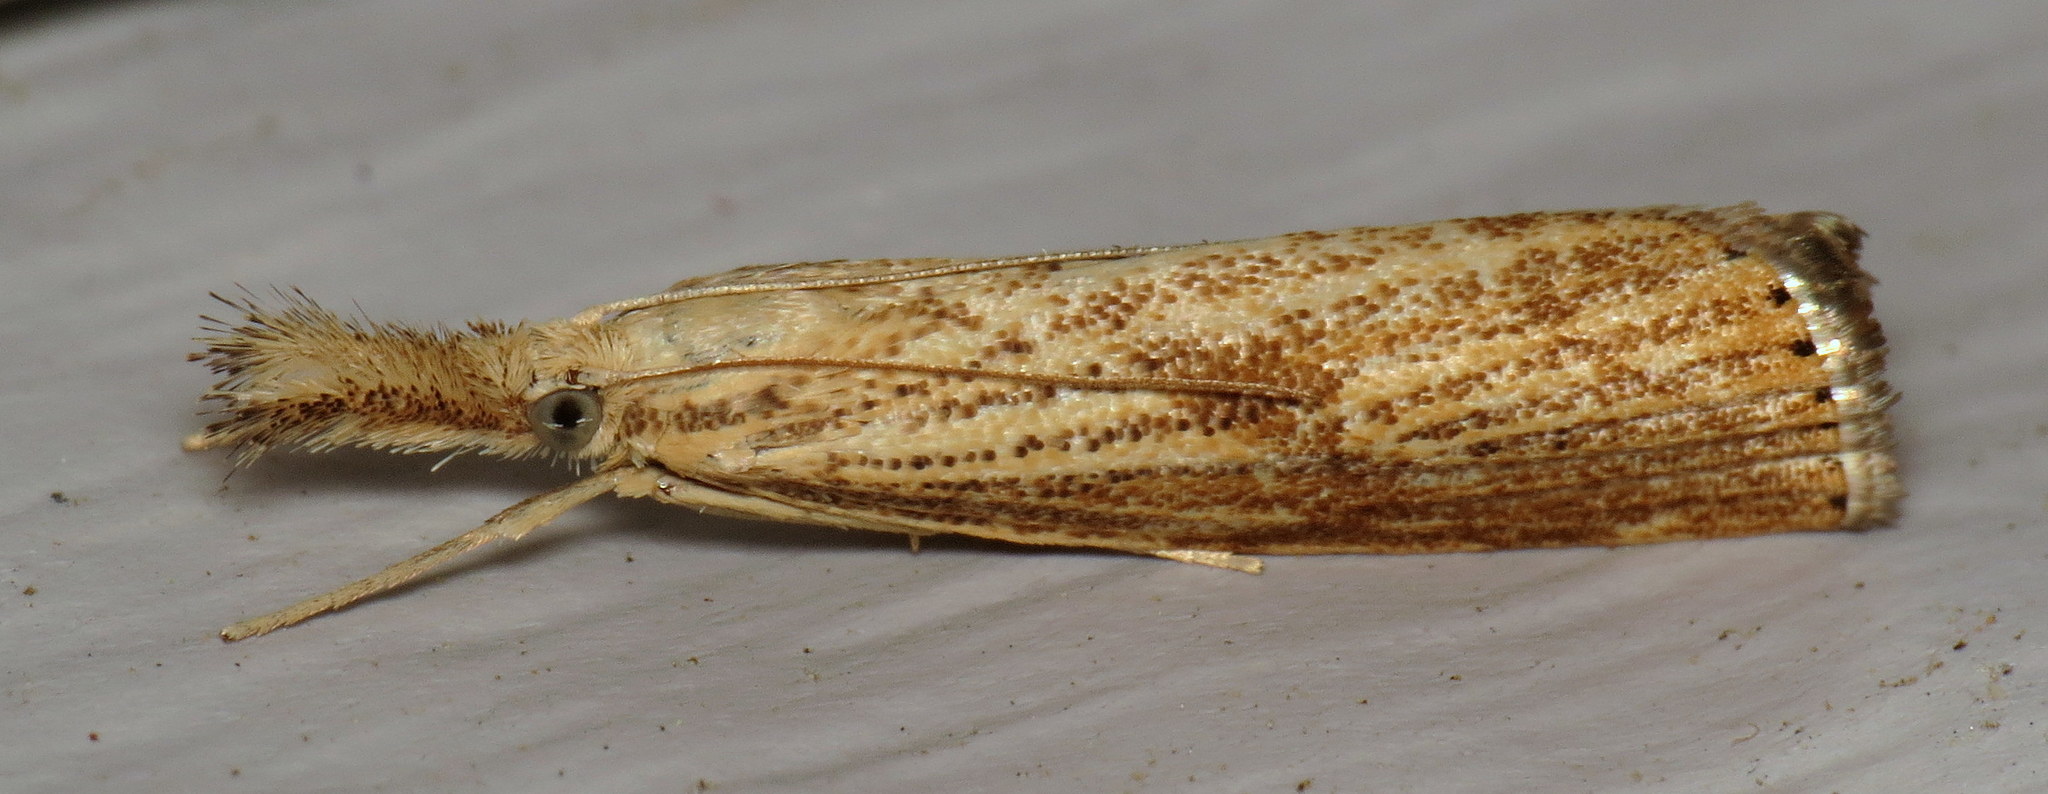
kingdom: Animalia
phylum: Arthropoda
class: Insecta
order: Lepidoptera
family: Crambidae
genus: Agriphila
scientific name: Agriphila ruricolellus
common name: Lesser vagabond sod webworm
